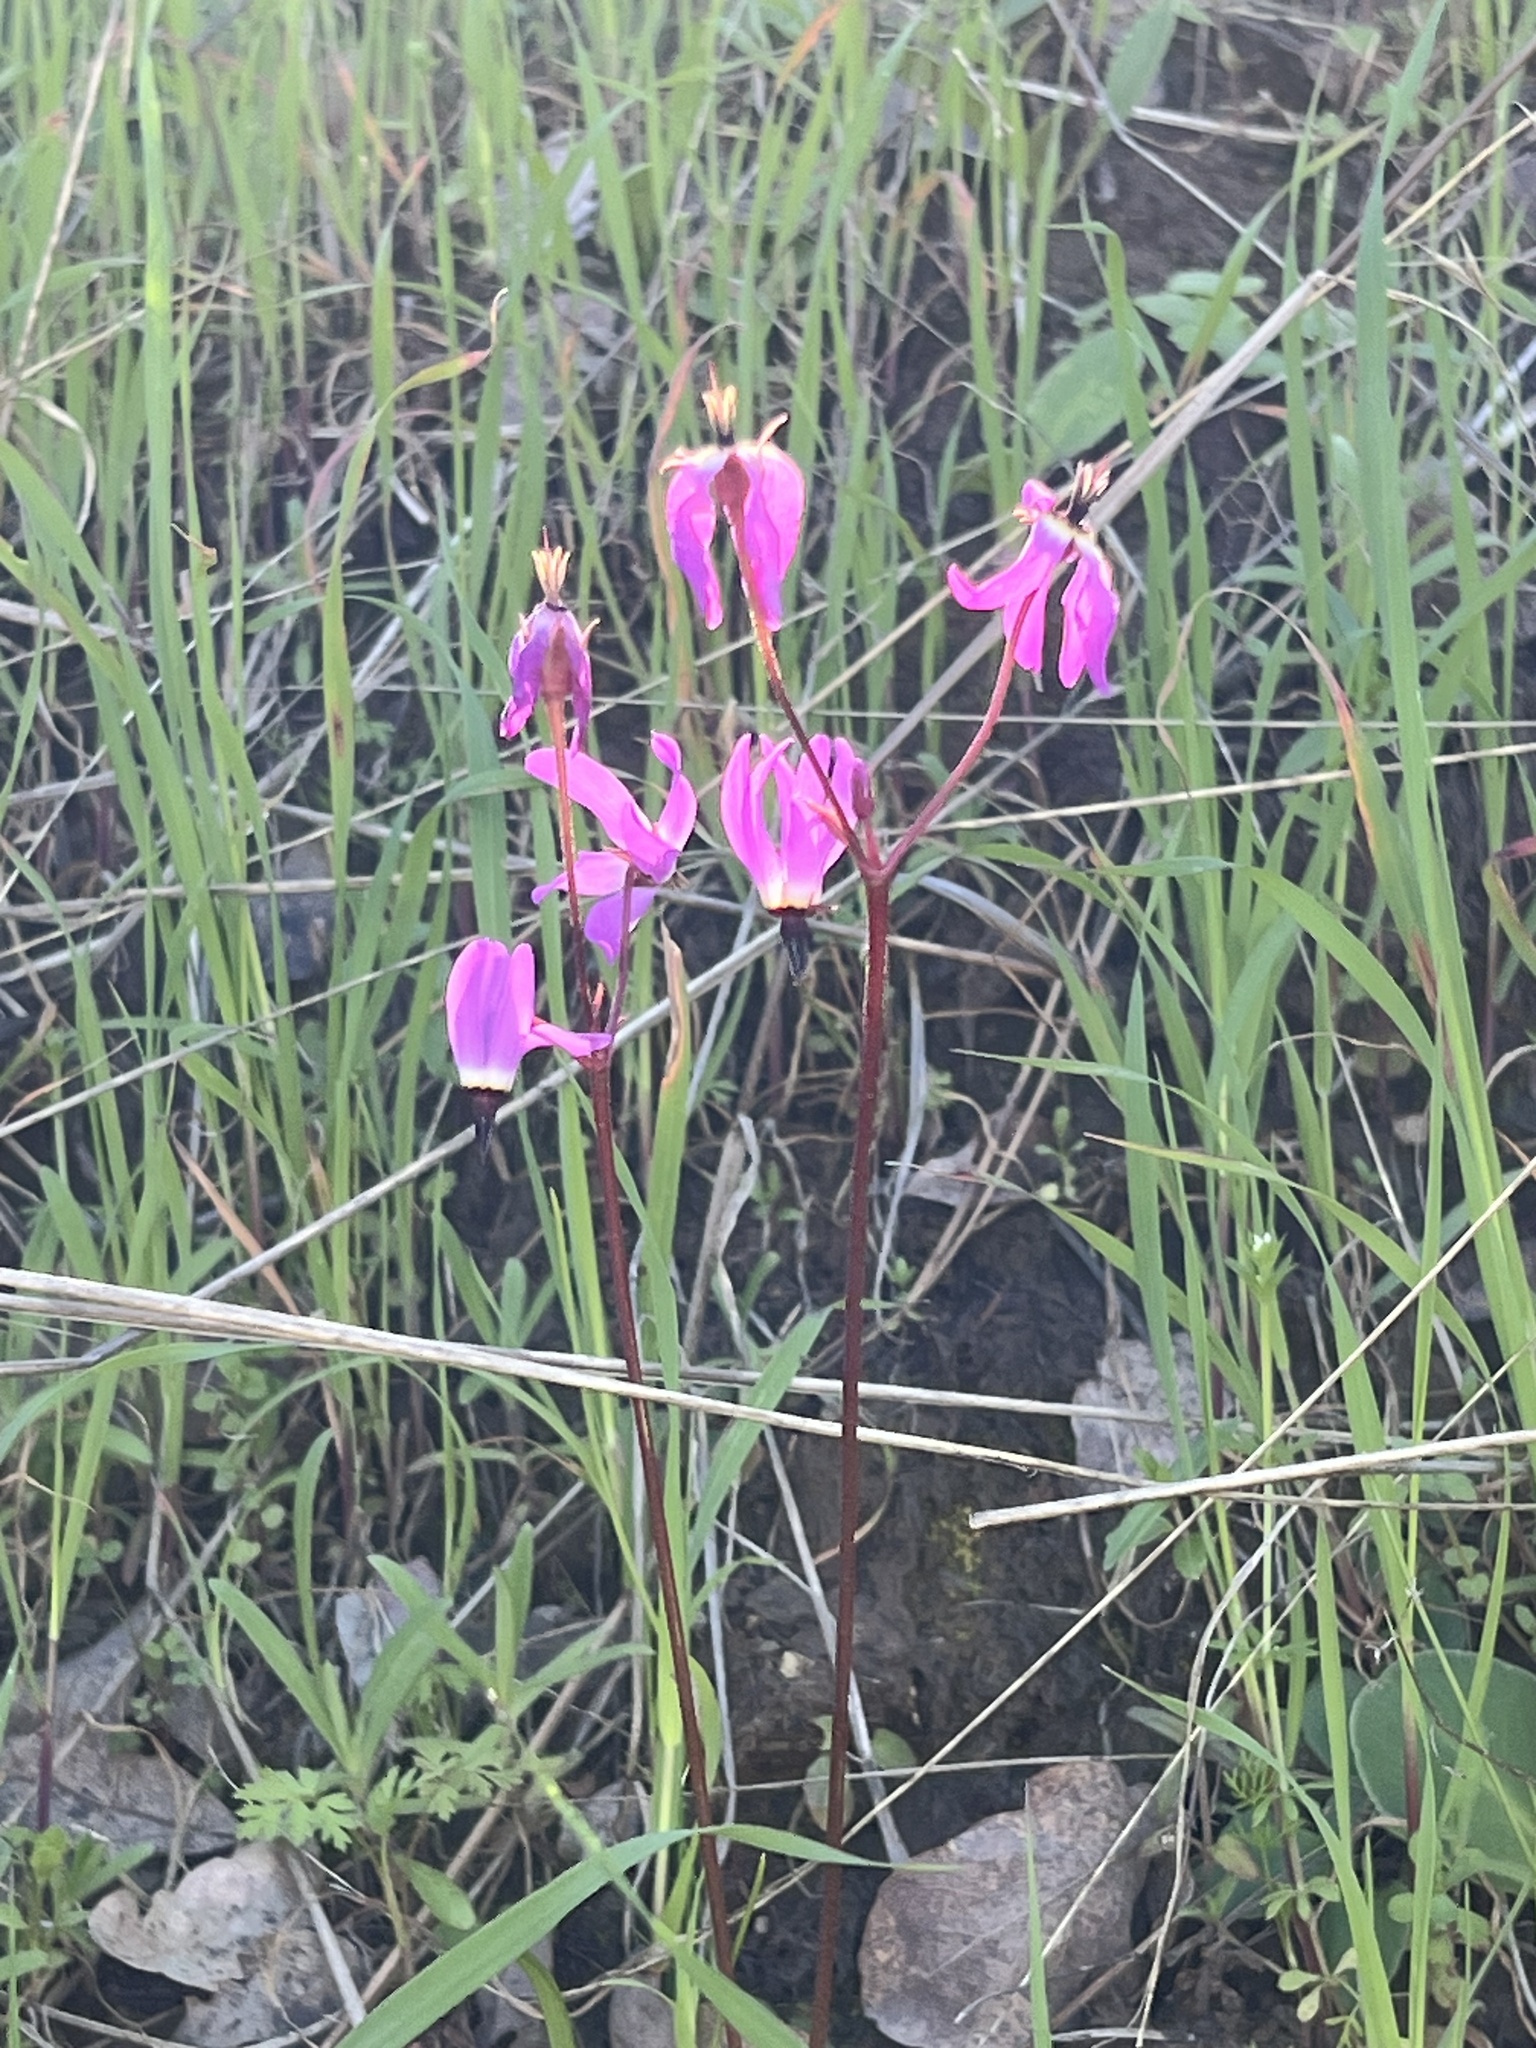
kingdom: Plantae
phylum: Tracheophyta
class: Magnoliopsida
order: Ericales
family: Primulaceae
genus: Dodecatheon
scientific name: Dodecatheon hendersonii
